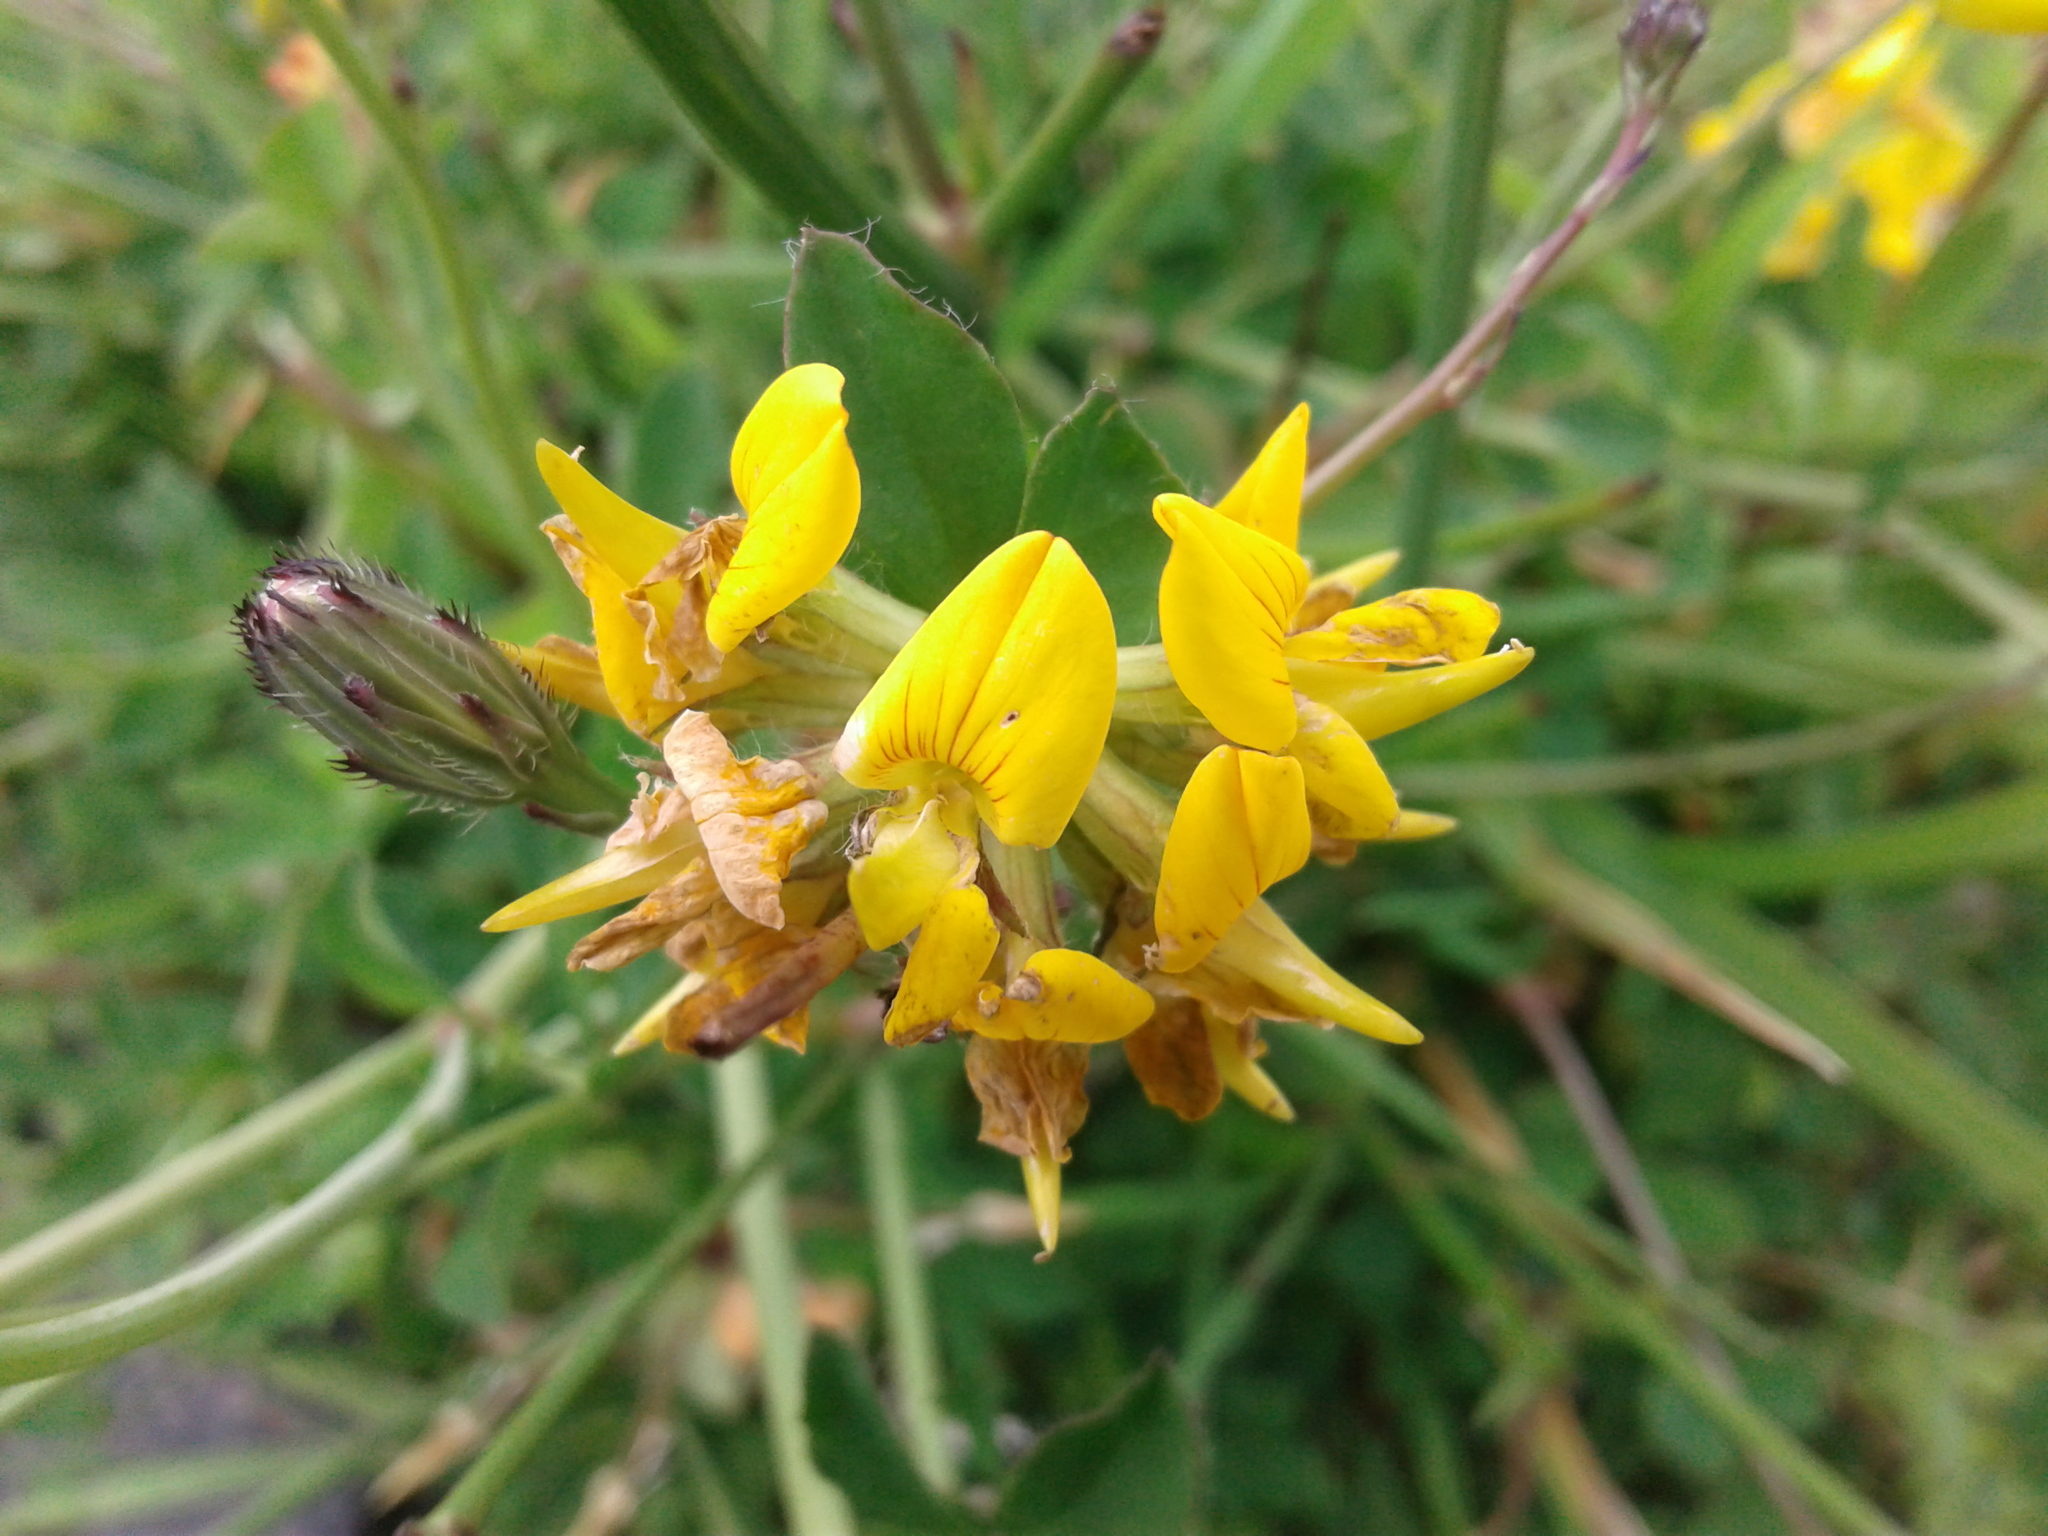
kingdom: Plantae
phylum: Tracheophyta
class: Magnoliopsida
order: Fabales
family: Fabaceae
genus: Lotus
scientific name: Lotus pedunculatus
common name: Greater birdsfoot-trefoil
